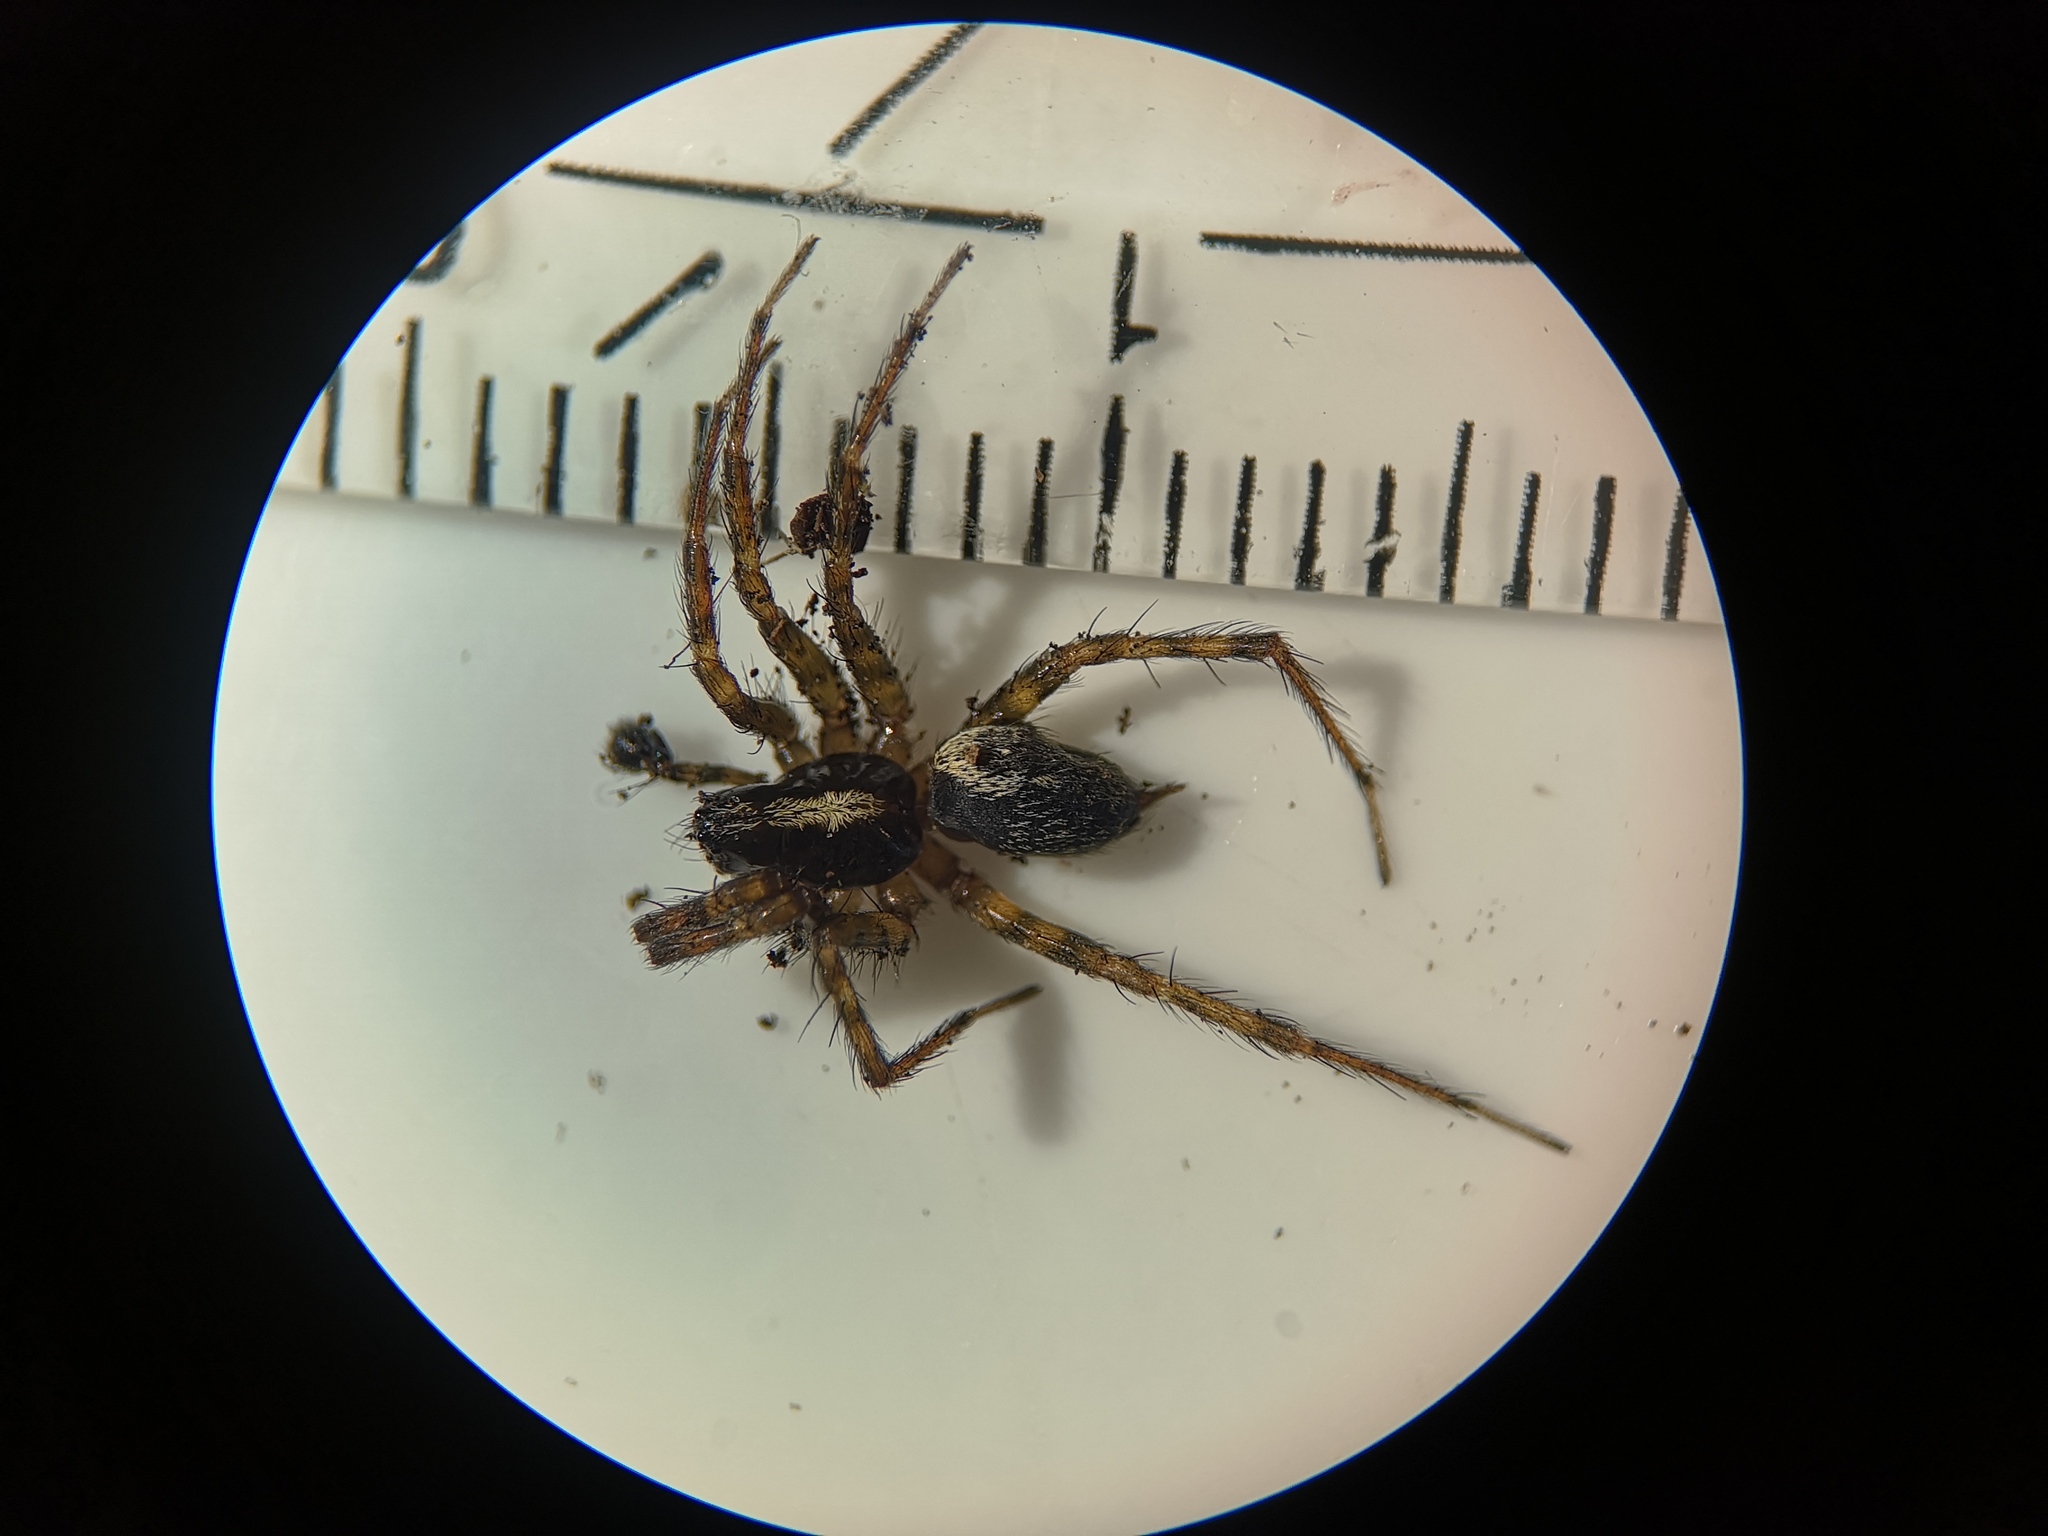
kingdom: Animalia
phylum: Arthropoda
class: Arachnida
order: Araneae
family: Agelenidae
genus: Textrix
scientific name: Textrix denticulata
